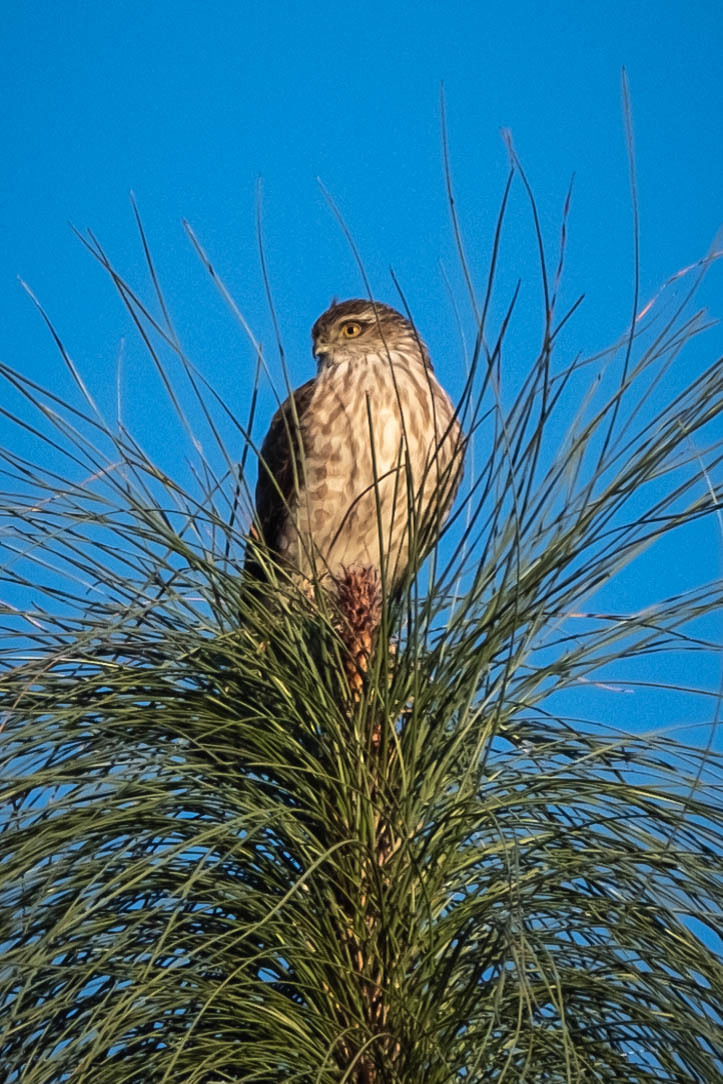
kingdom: Animalia
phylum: Chordata
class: Aves
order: Accipitriformes
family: Accipitridae
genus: Accipiter
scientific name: Accipiter striatus
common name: Sharp-shinned hawk
